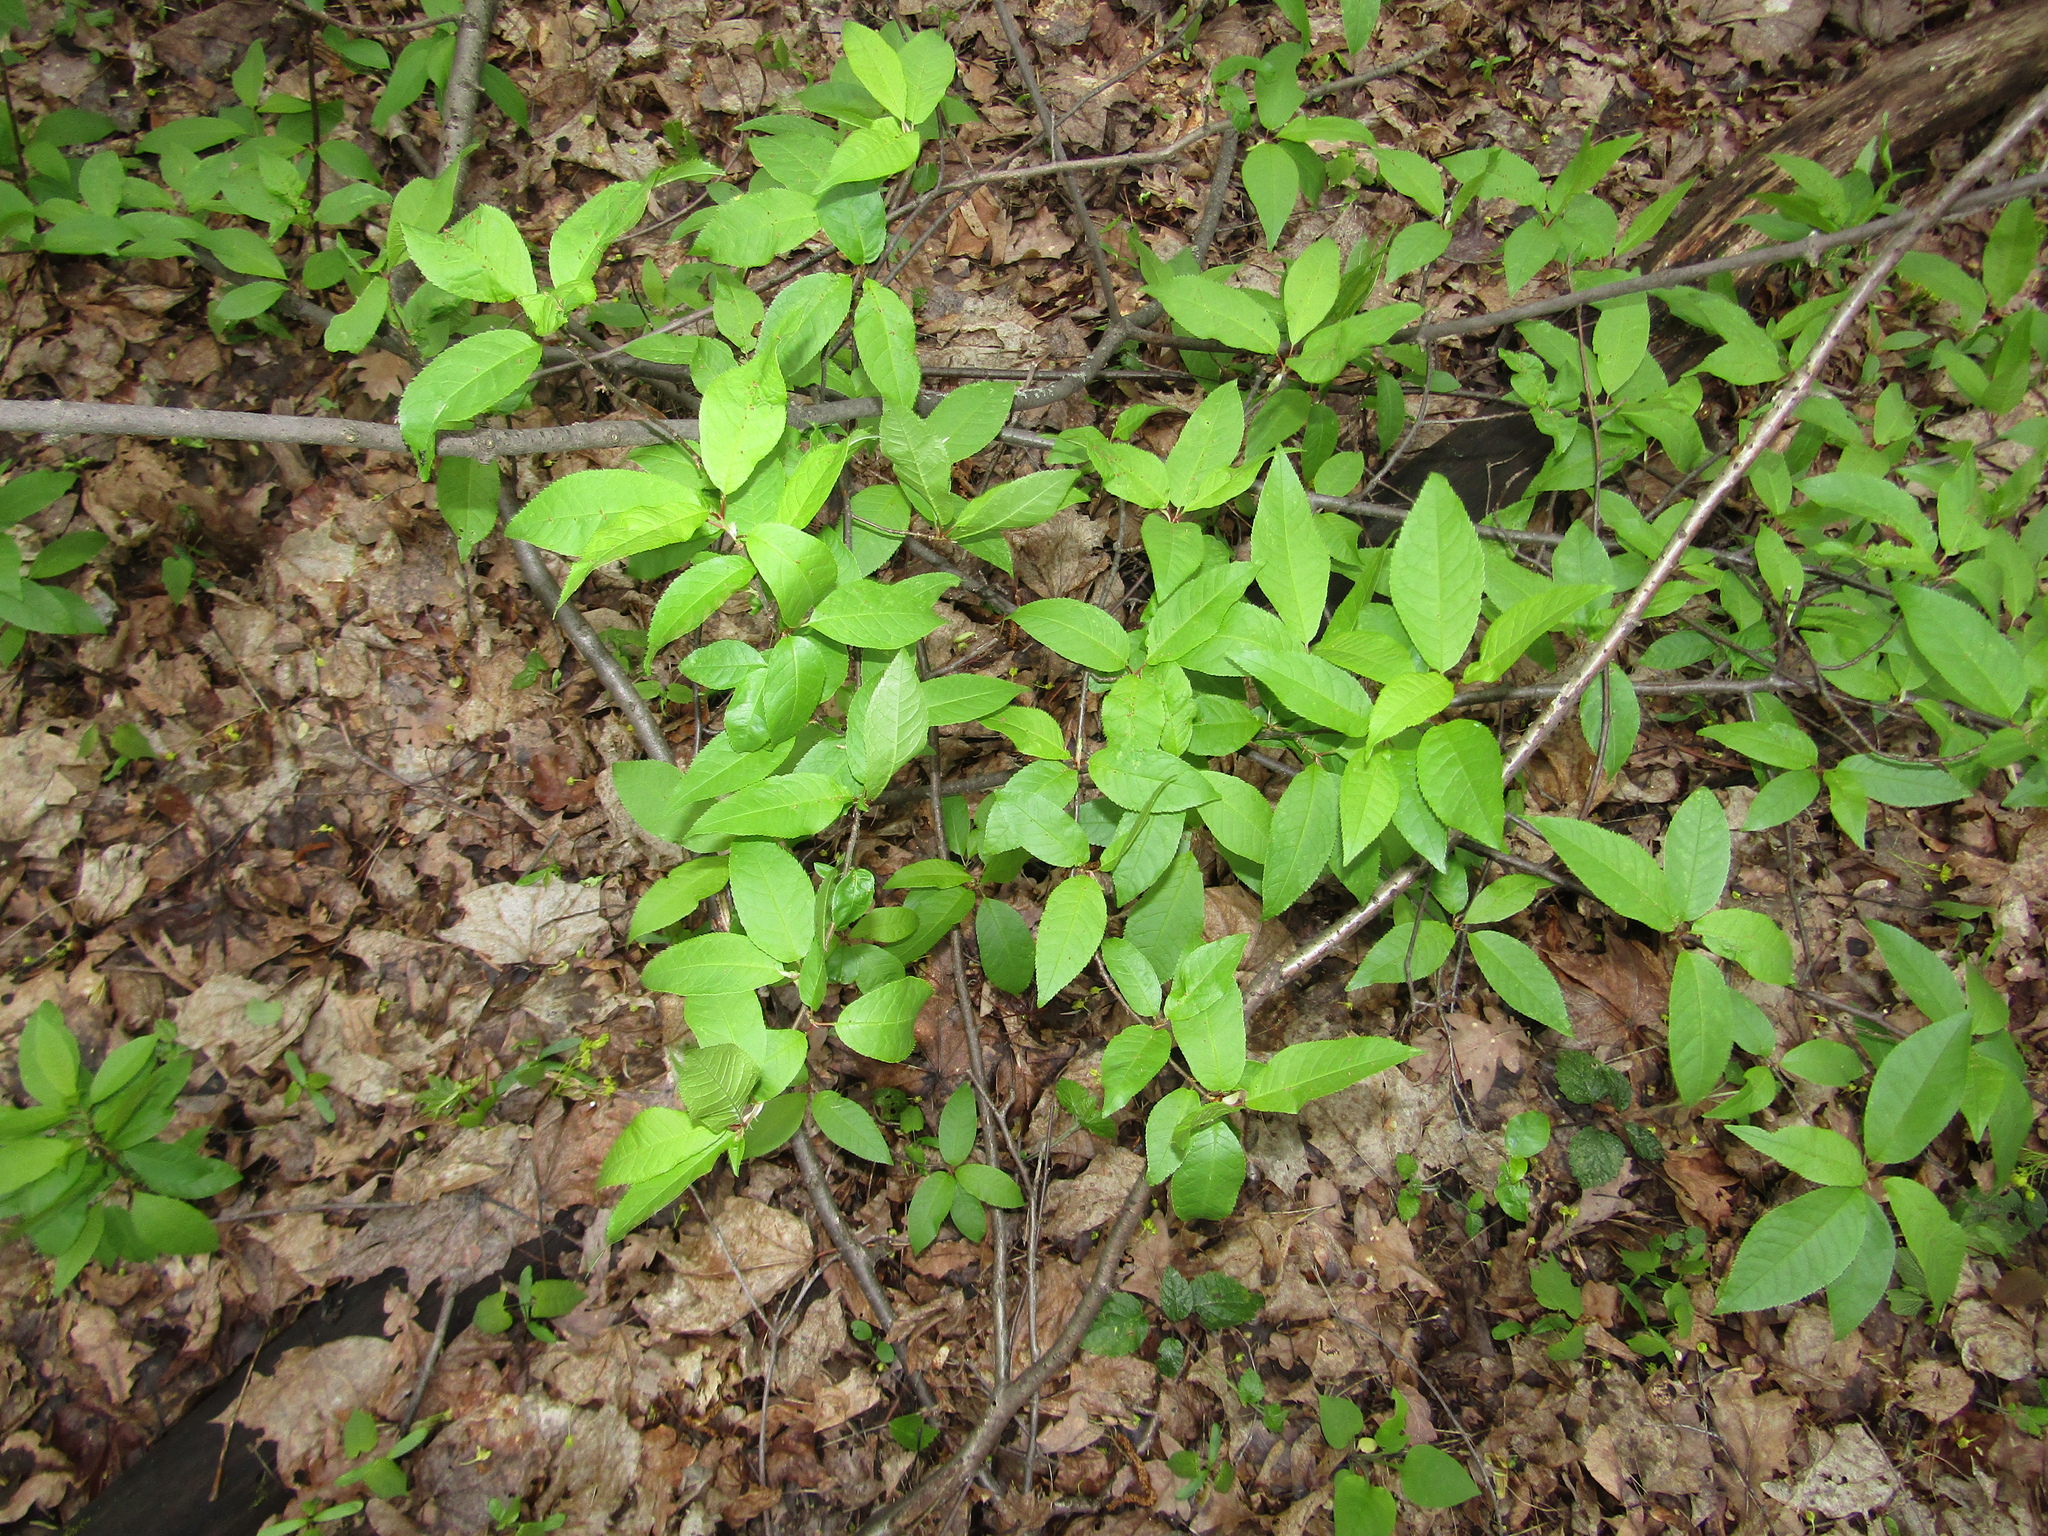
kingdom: Plantae
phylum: Tracheophyta
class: Magnoliopsida
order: Rosales
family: Rosaceae
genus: Prunus
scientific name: Prunus padus
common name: Bird cherry
